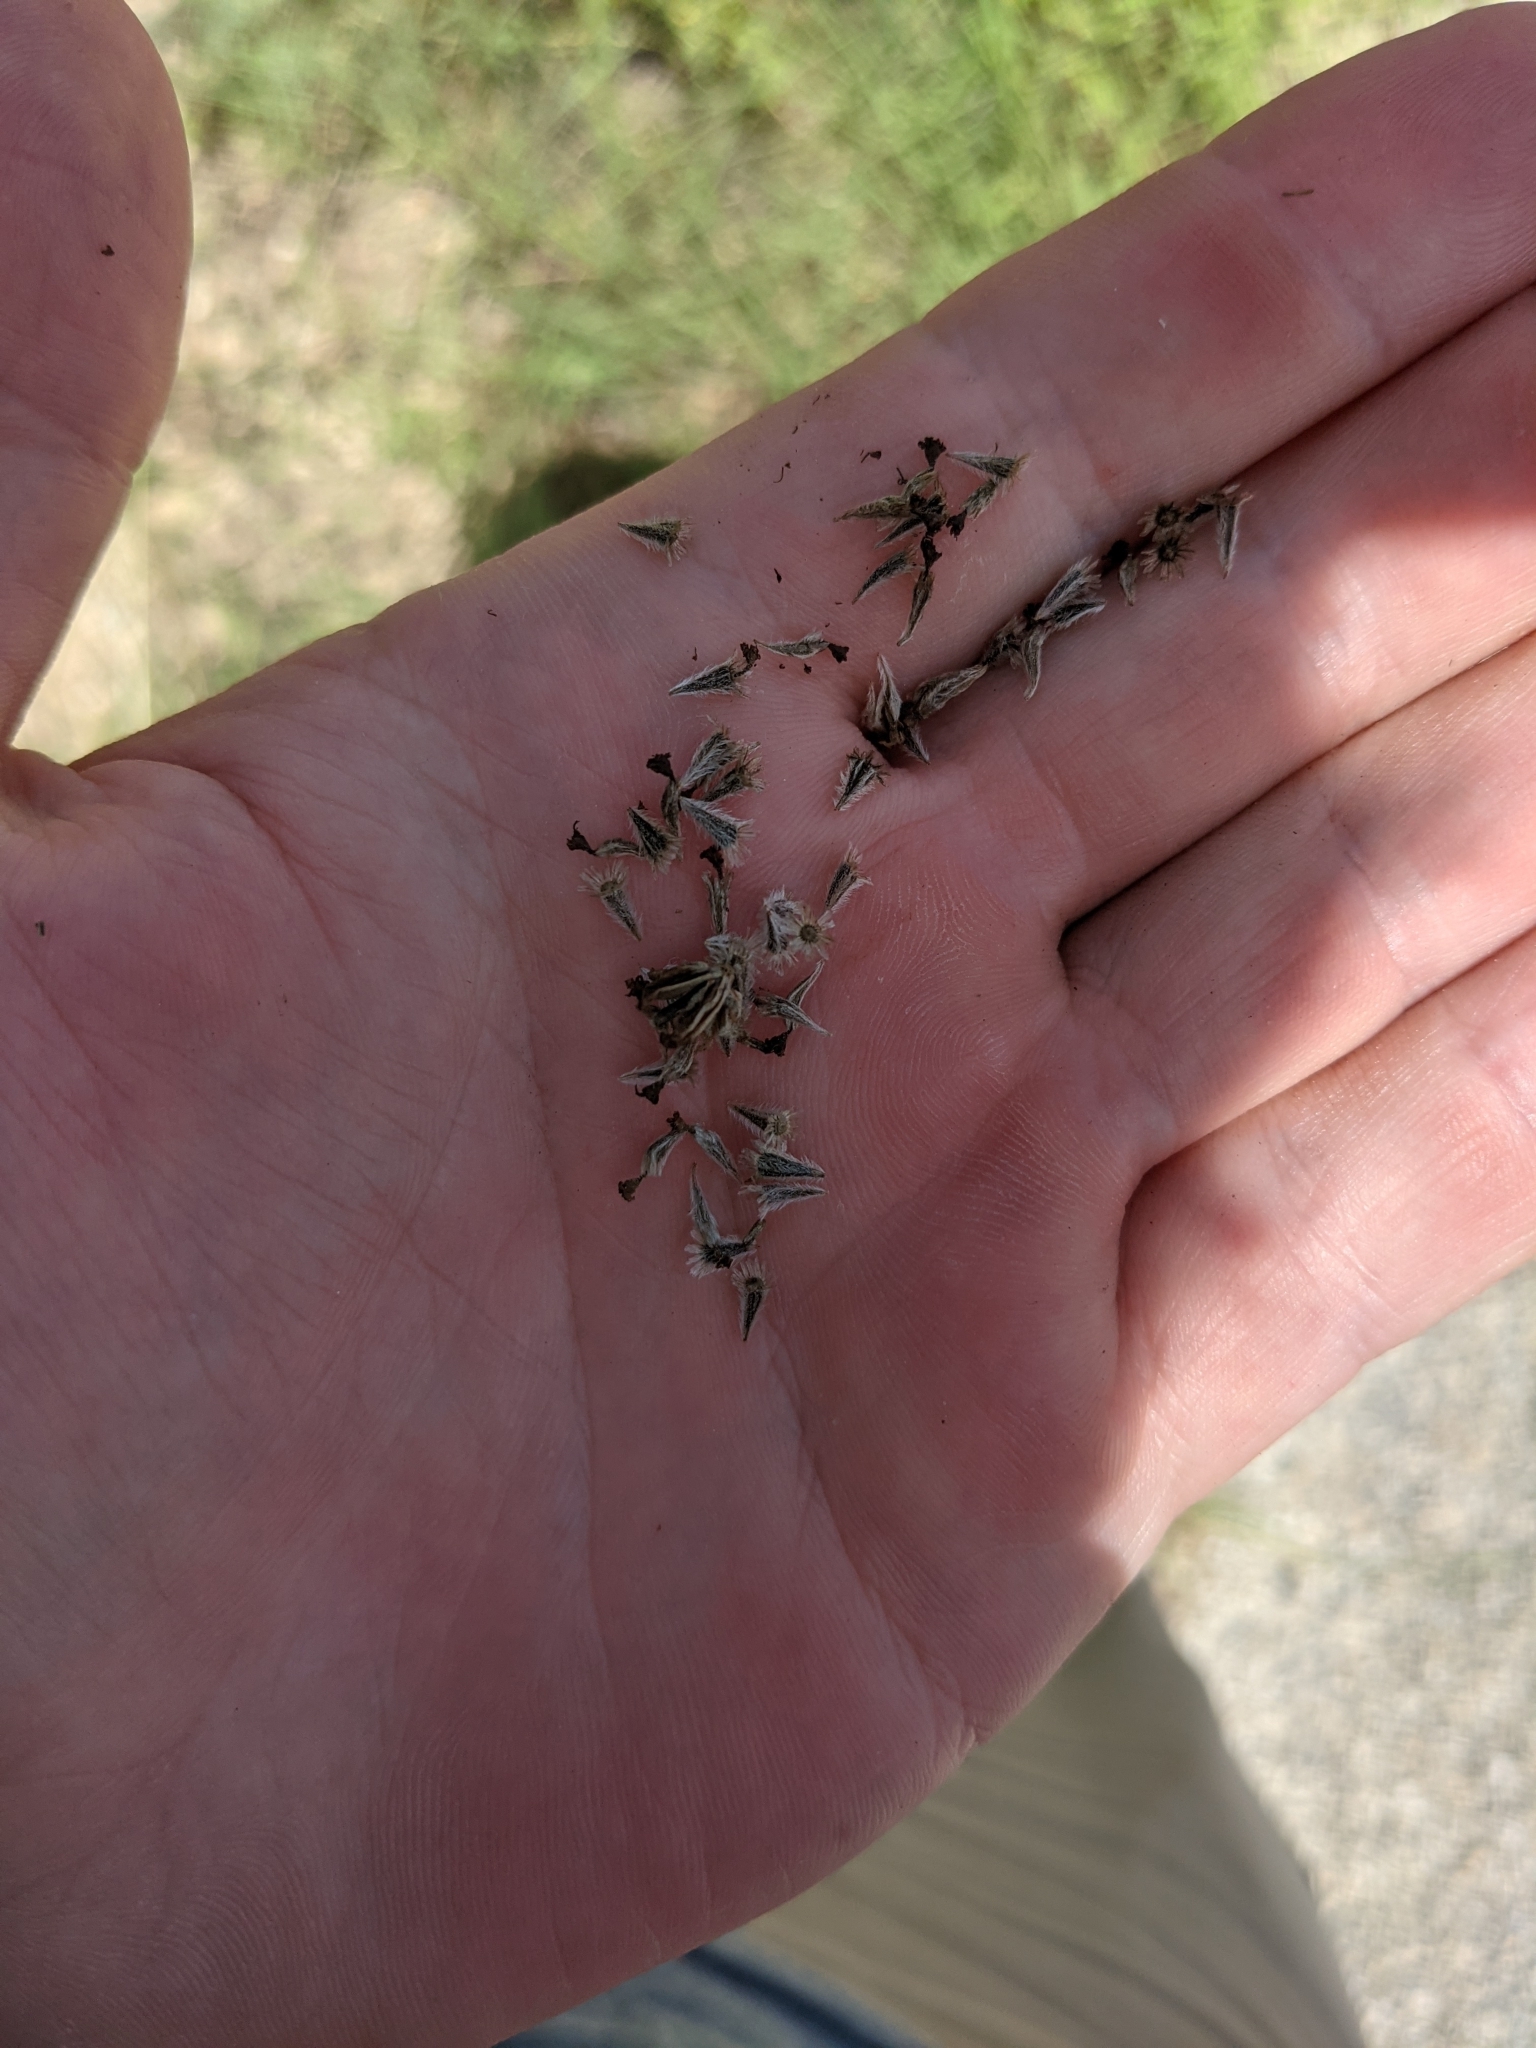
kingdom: Plantae
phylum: Tracheophyta
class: Magnoliopsida
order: Asterales
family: Asteraceae
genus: Hymenopappus
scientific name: Hymenopappus carrizoanus
